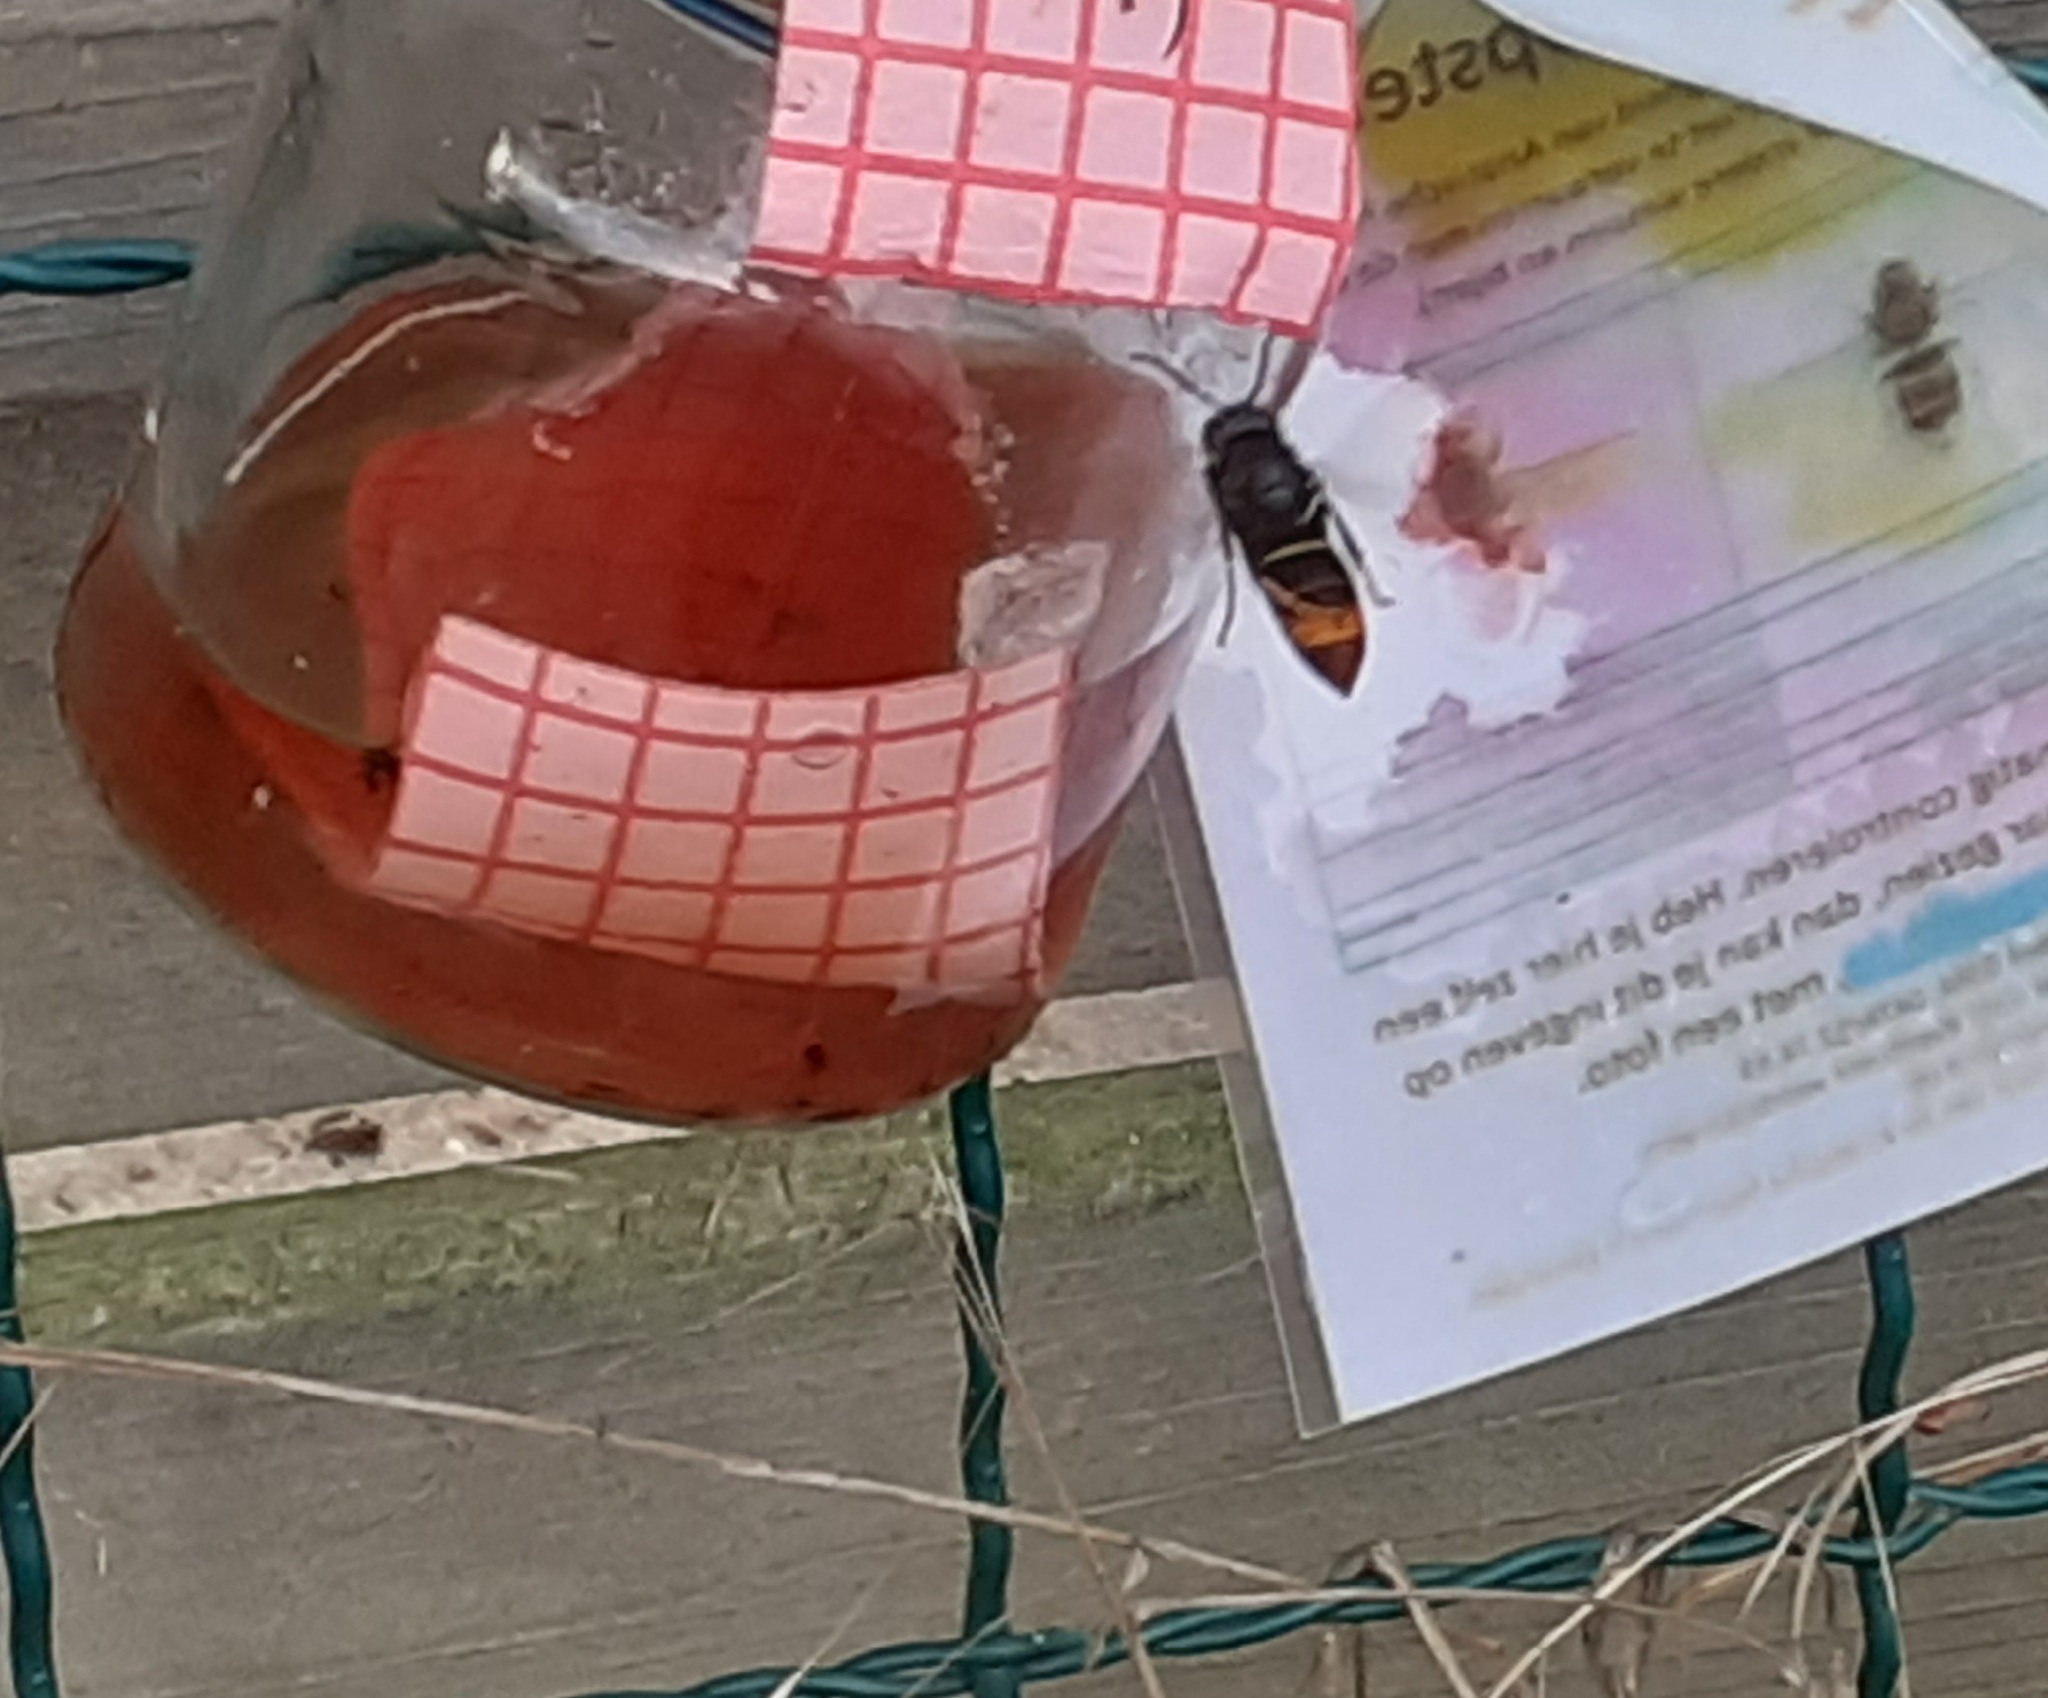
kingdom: Animalia
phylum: Arthropoda
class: Insecta
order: Hymenoptera
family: Vespidae
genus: Vespa
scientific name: Vespa velutina
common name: Asian hornet
